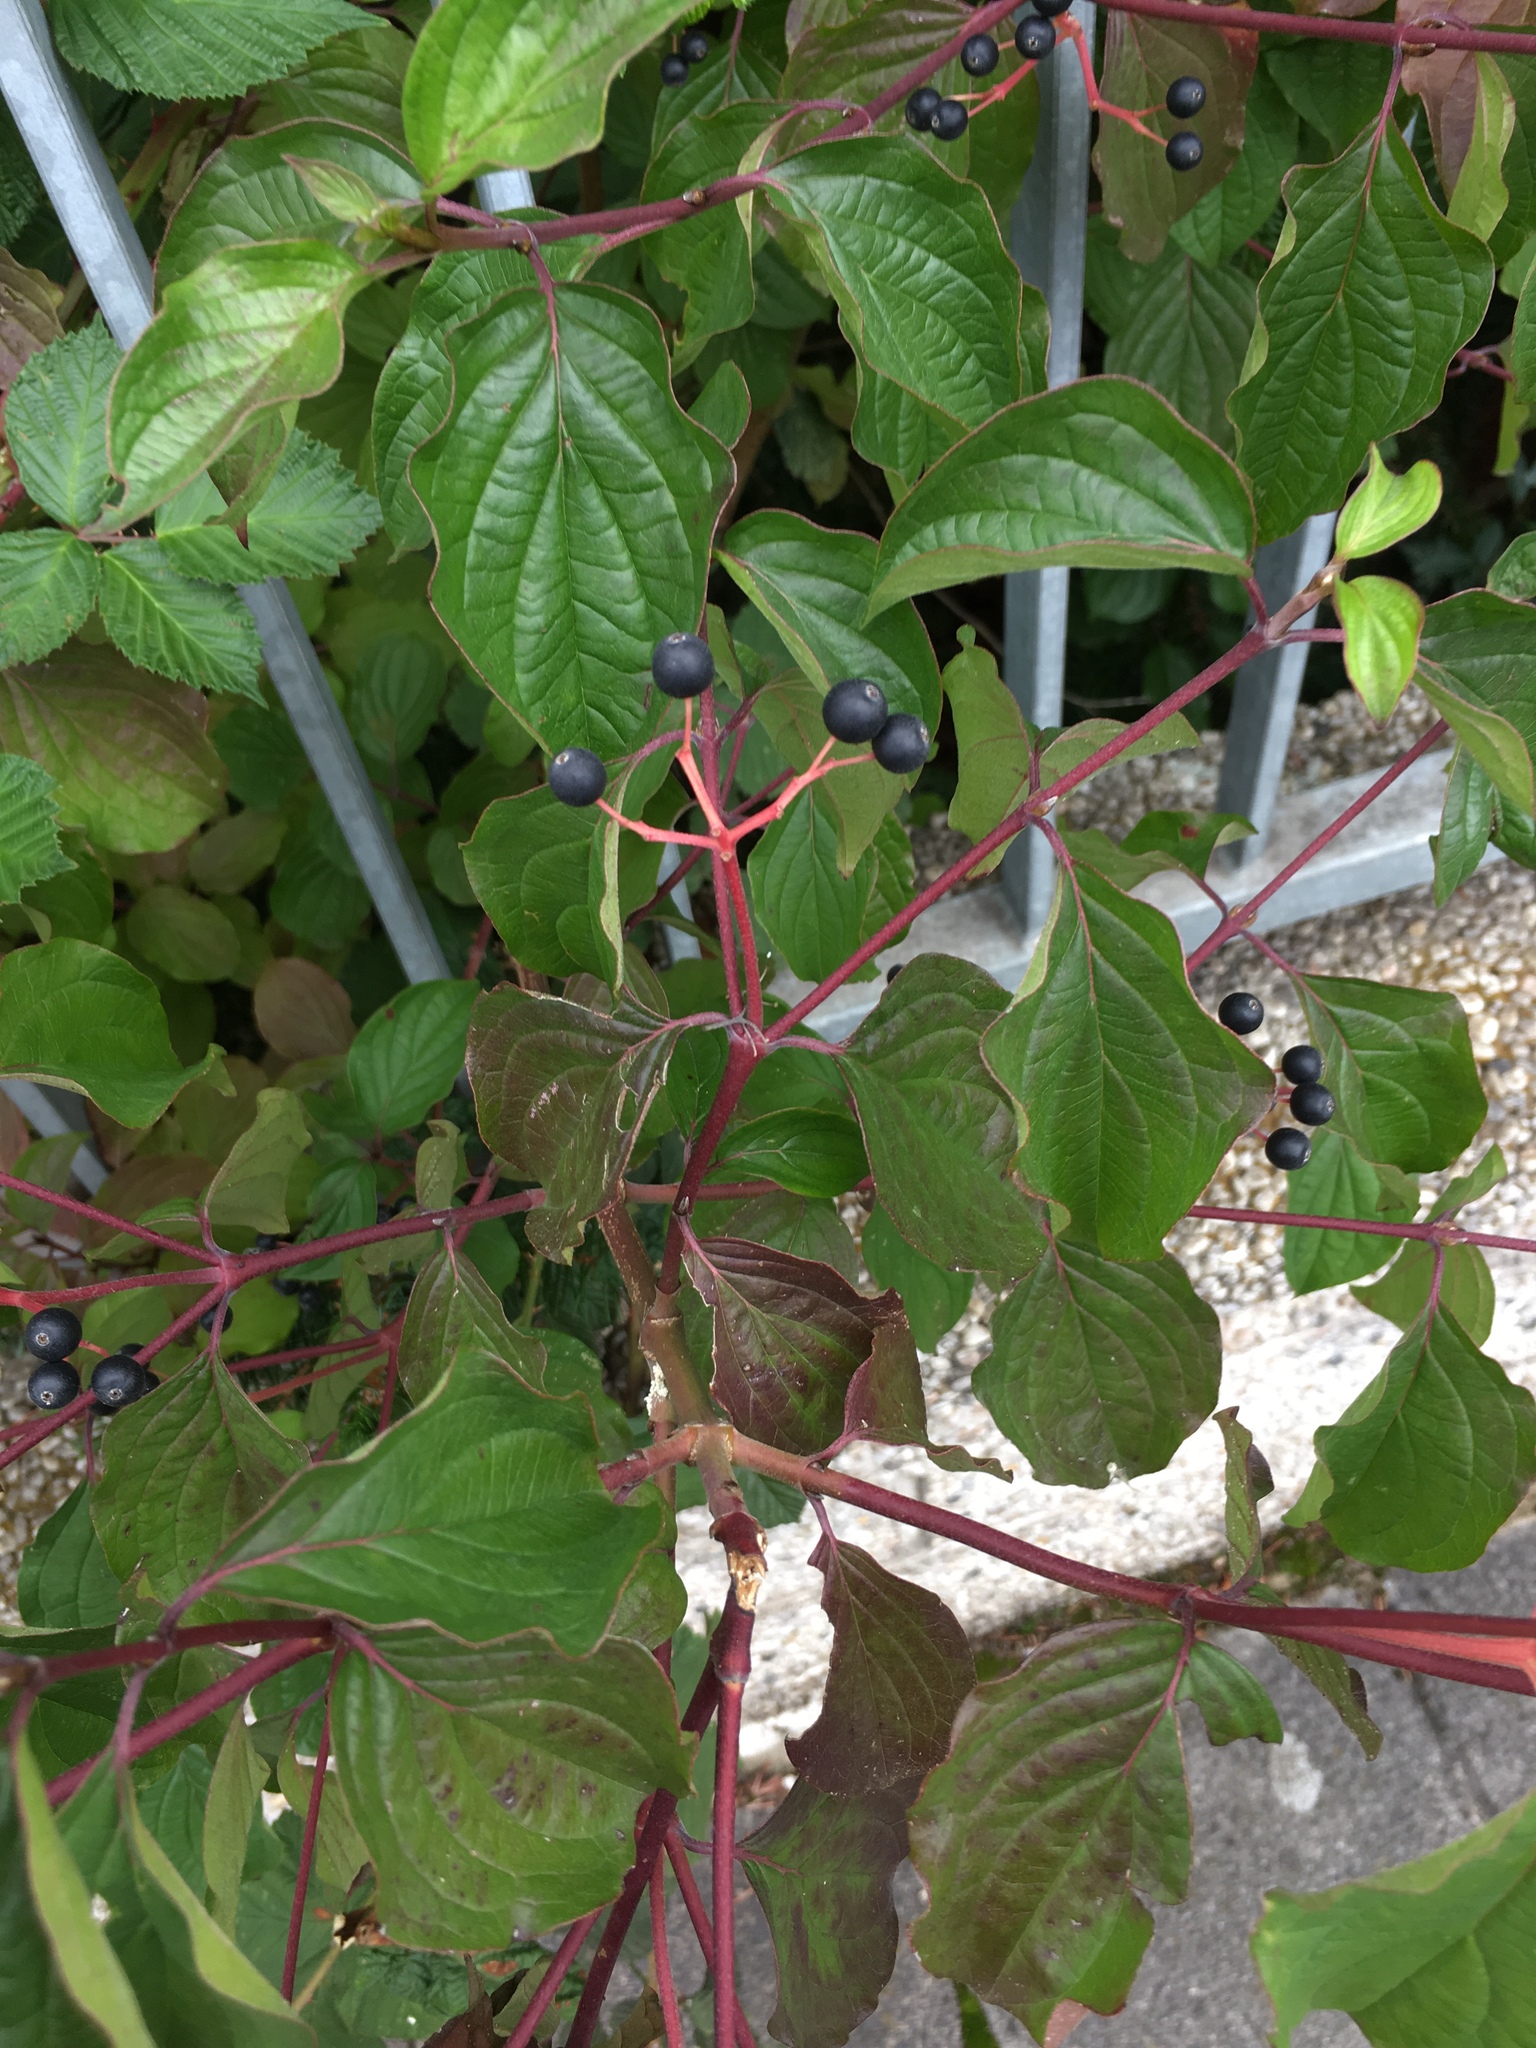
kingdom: Plantae
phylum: Tracheophyta
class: Magnoliopsida
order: Cornales
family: Cornaceae
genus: Cornus
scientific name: Cornus sanguinea
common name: Dogwood
